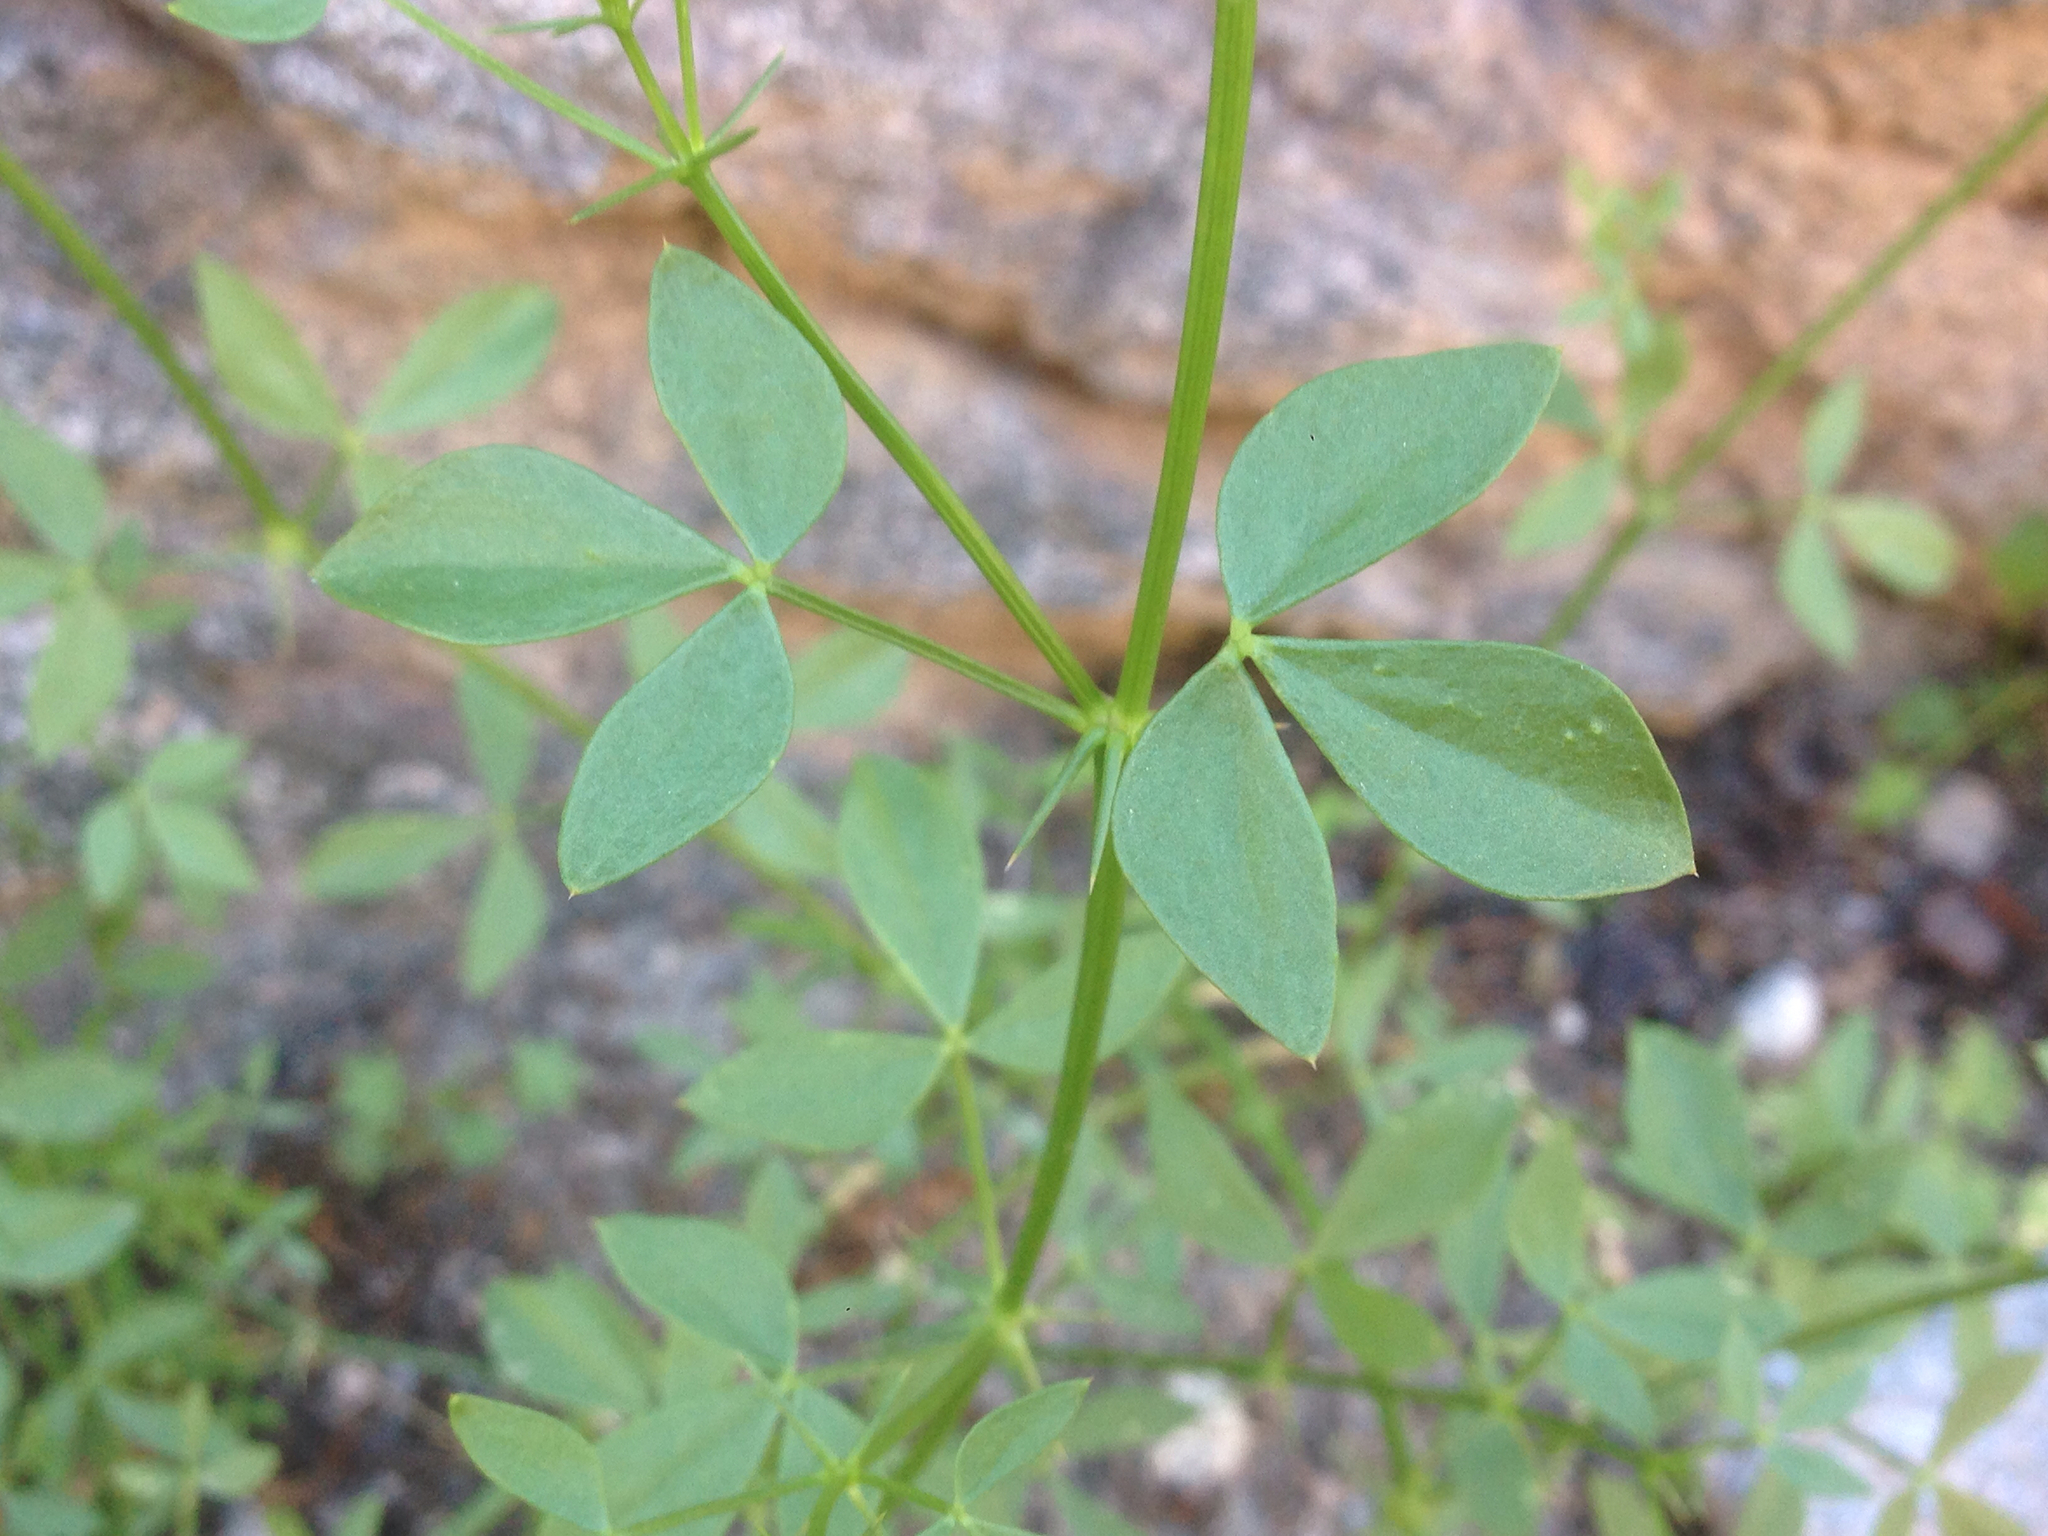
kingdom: Plantae
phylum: Tracheophyta
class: Magnoliopsida
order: Zygophyllales
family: Zygophyllaceae
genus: Fagonia
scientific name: Fagonia pachyacantha
